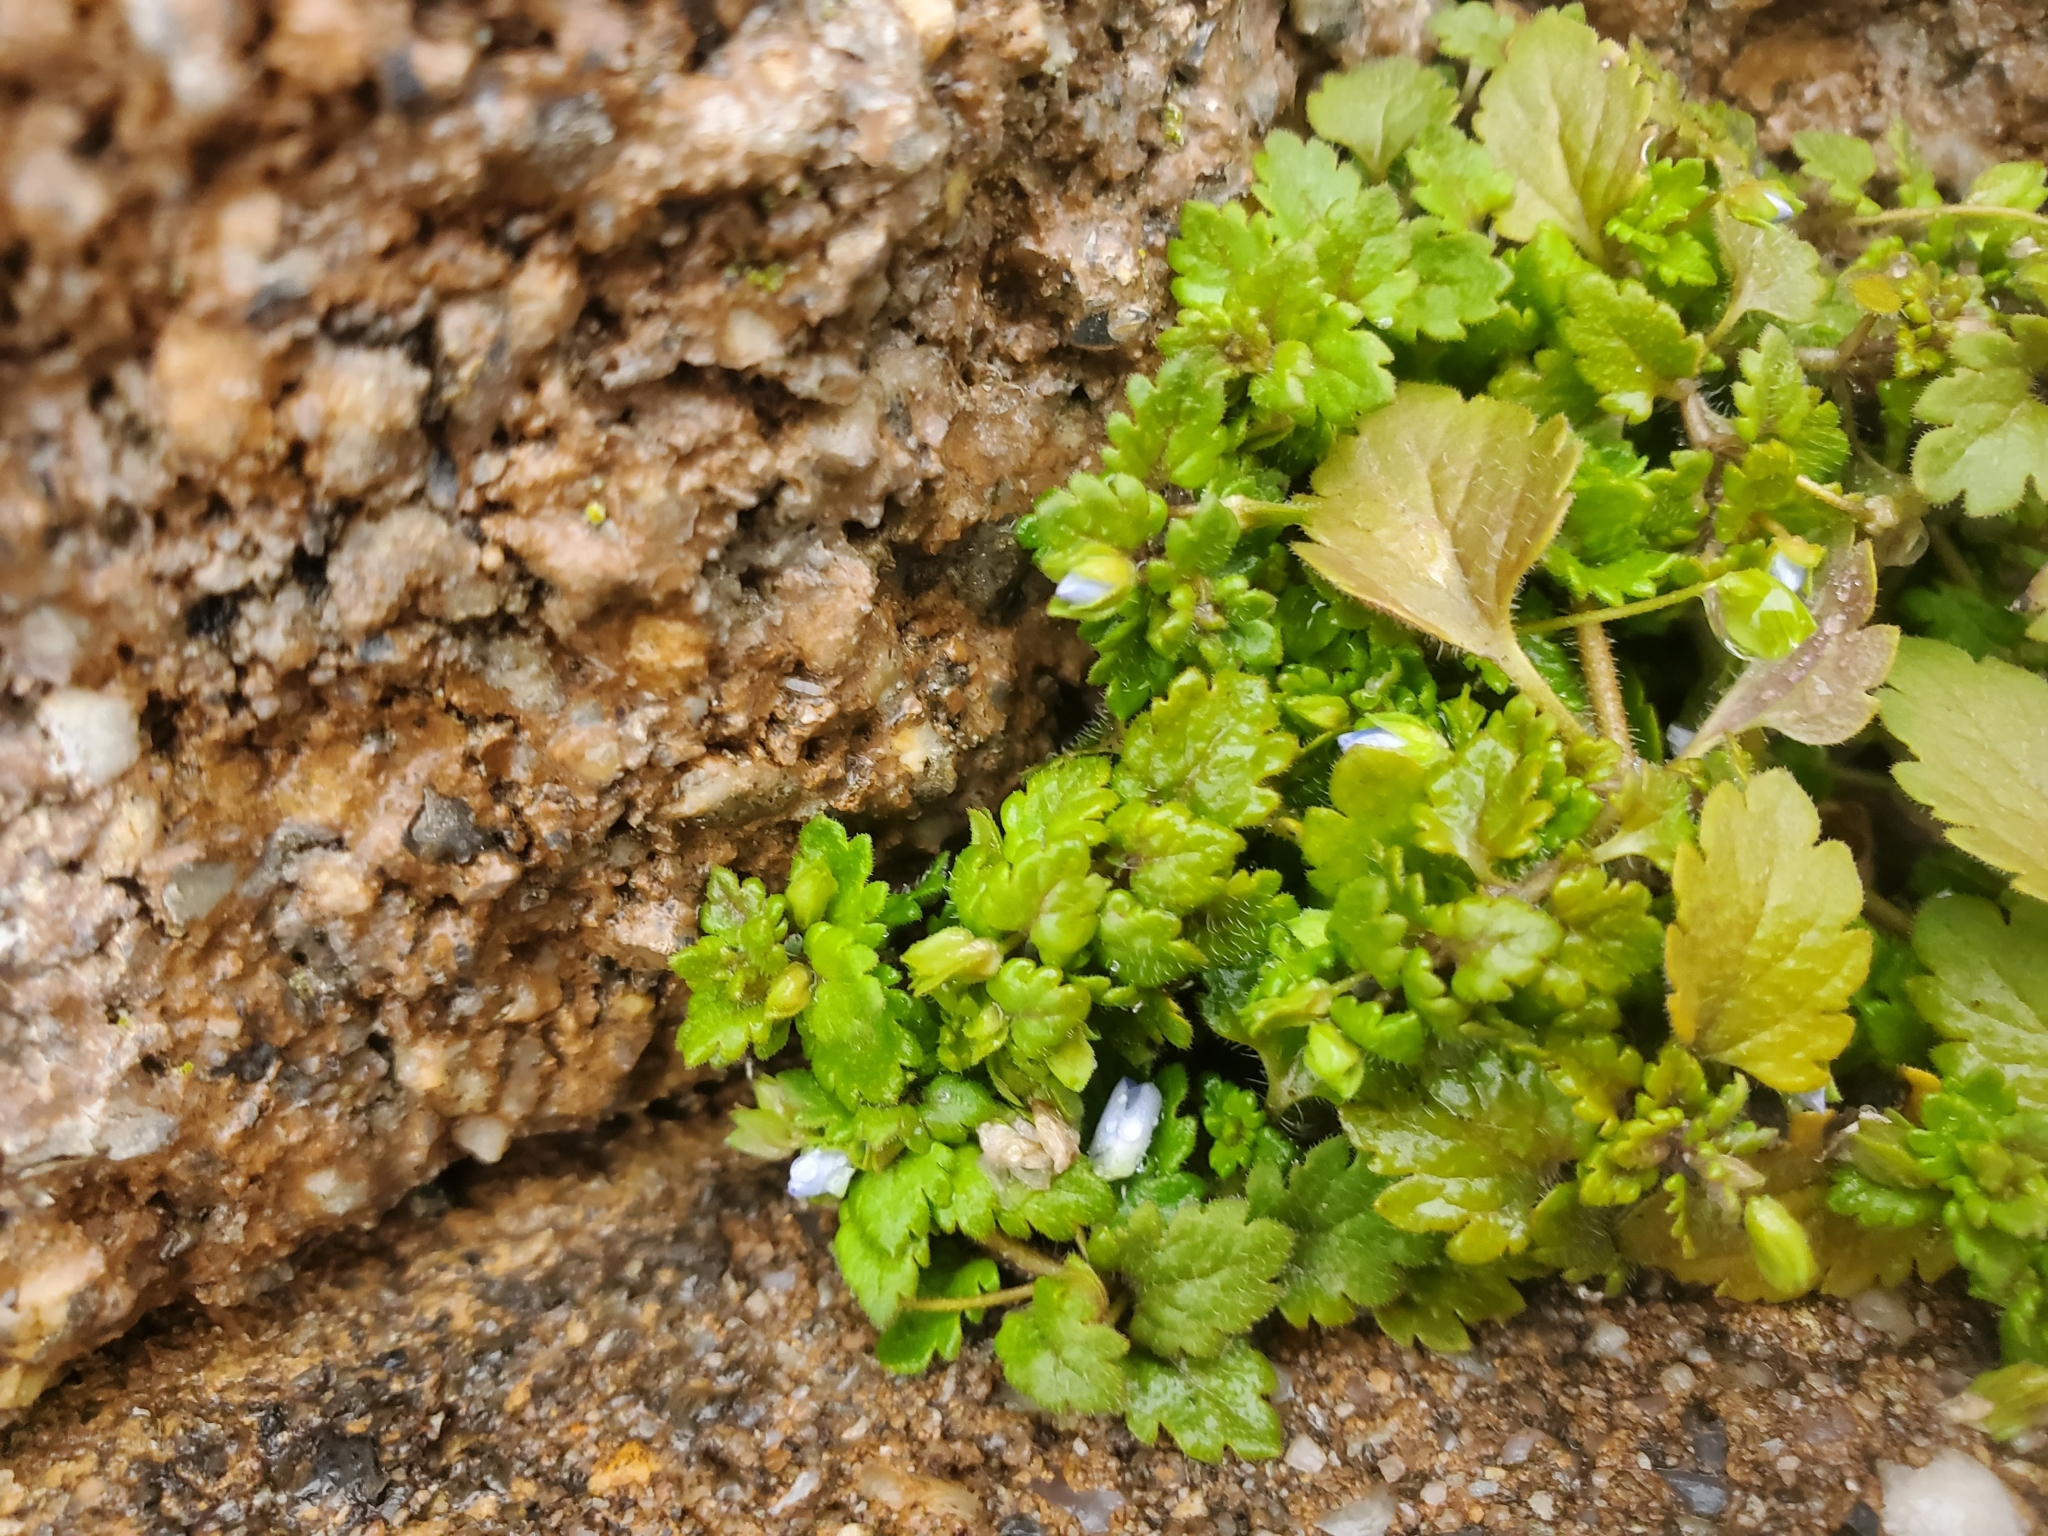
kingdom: Plantae
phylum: Tracheophyta
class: Magnoliopsida
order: Lamiales
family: Plantaginaceae
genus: Veronica
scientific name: Veronica polita
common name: Grey field-speedwell
